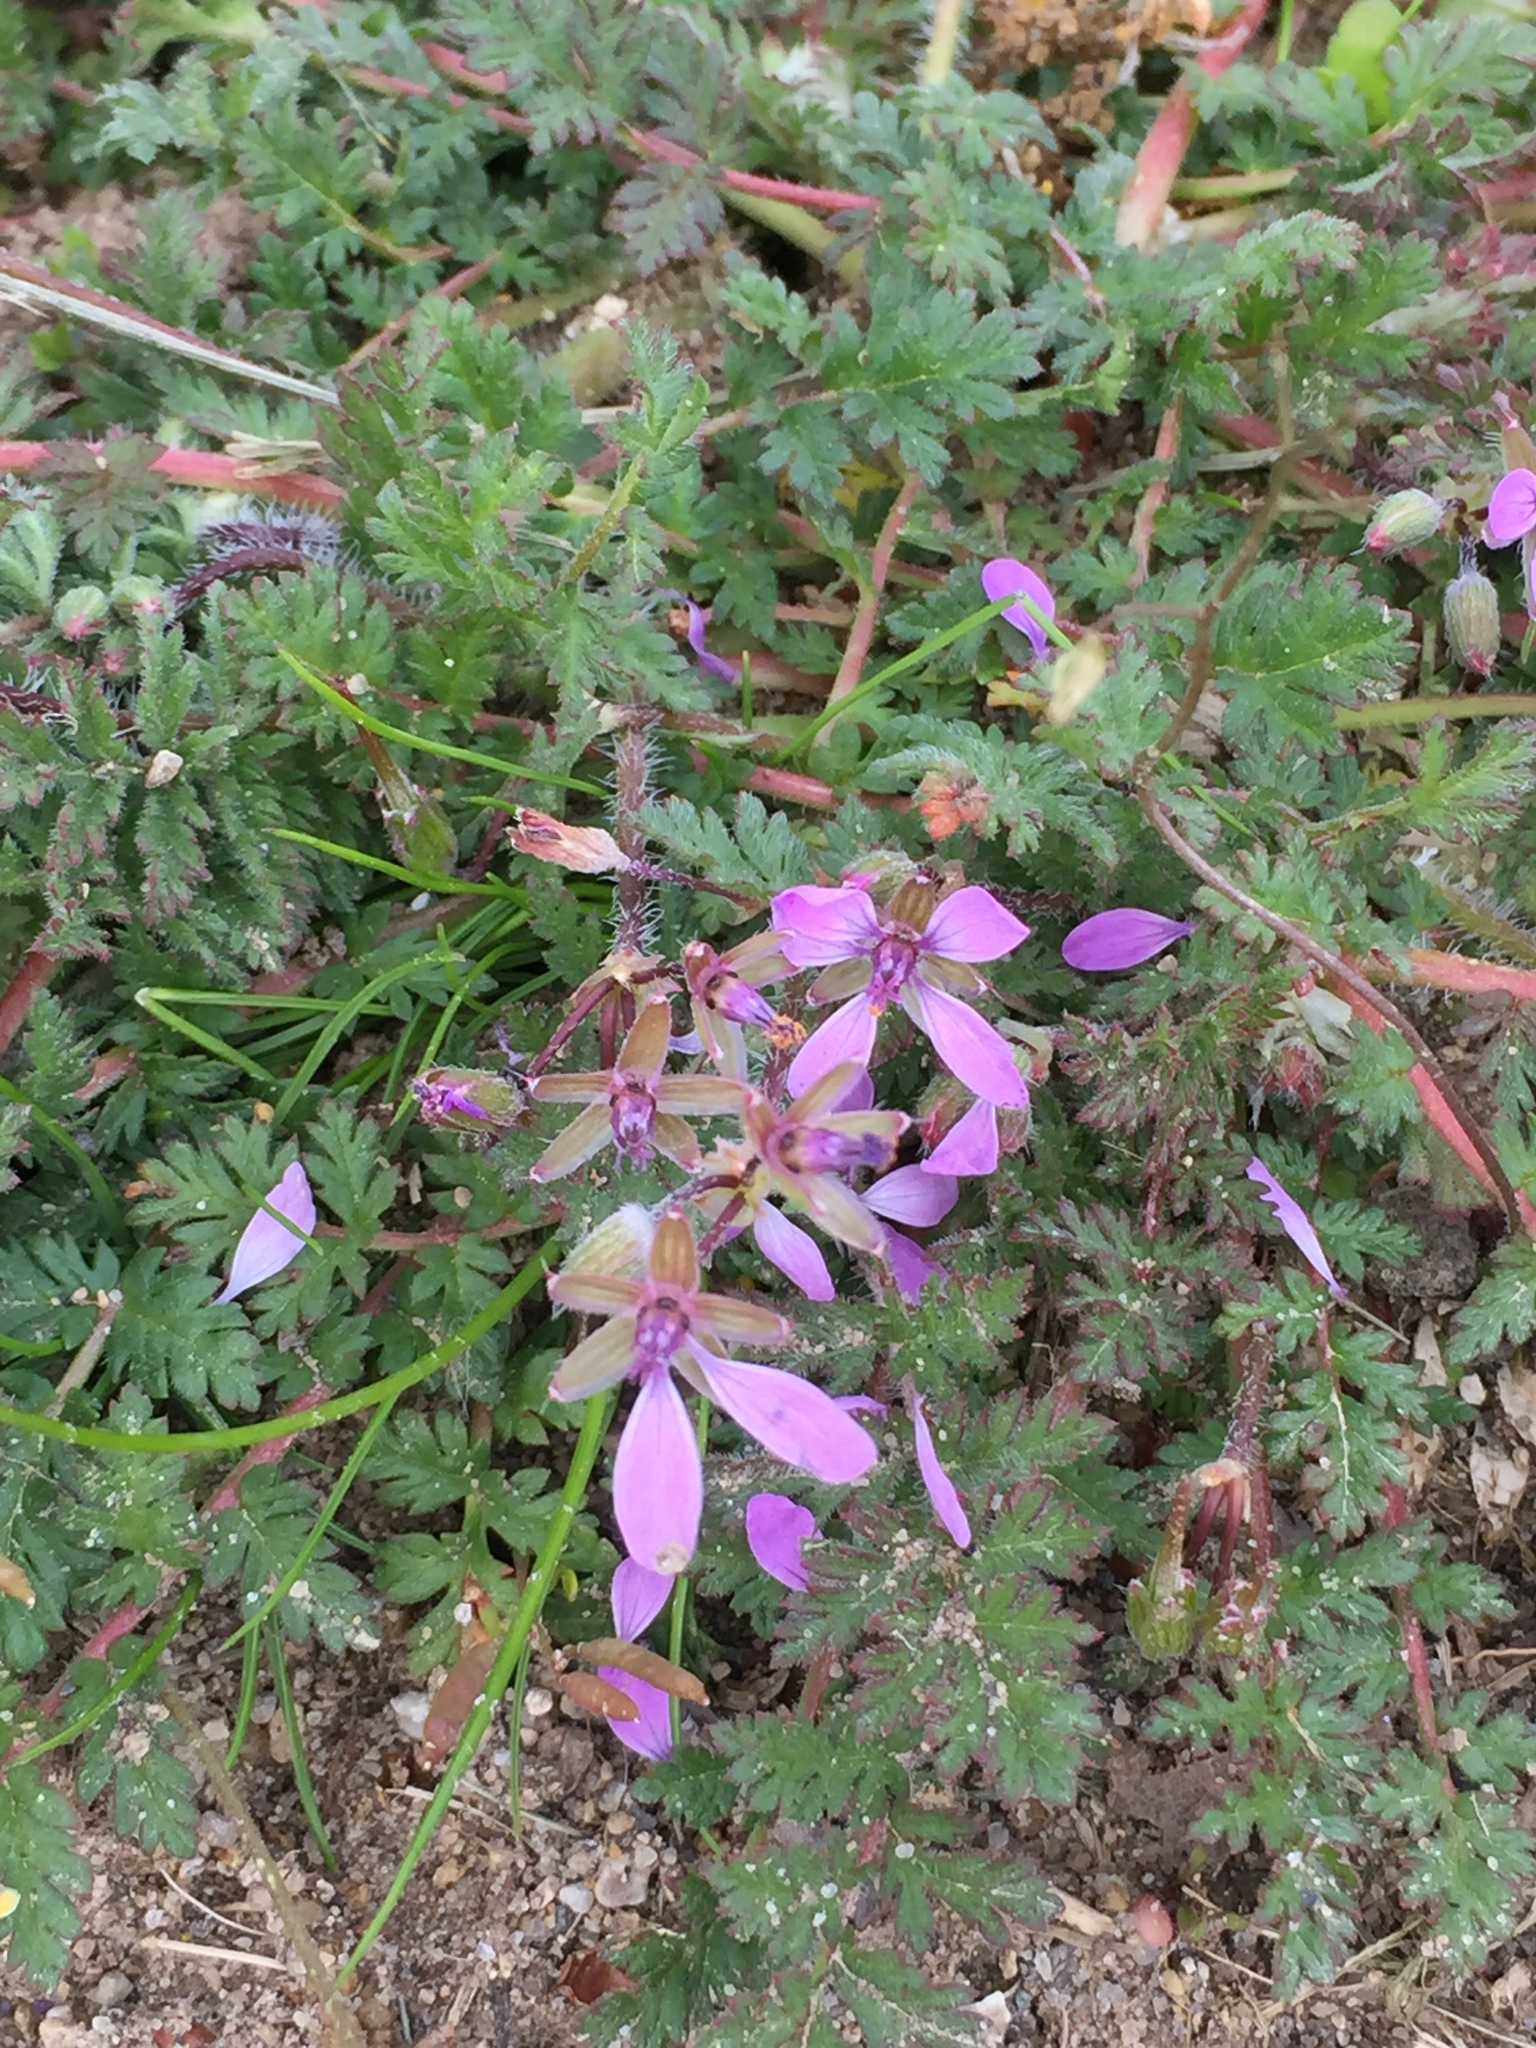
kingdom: Plantae
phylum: Tracheophyta
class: Magnoliopsida
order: Geraniales
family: Geraniaceae
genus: Erodium
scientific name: Erodium cicutarium
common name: Common stork's-bill
